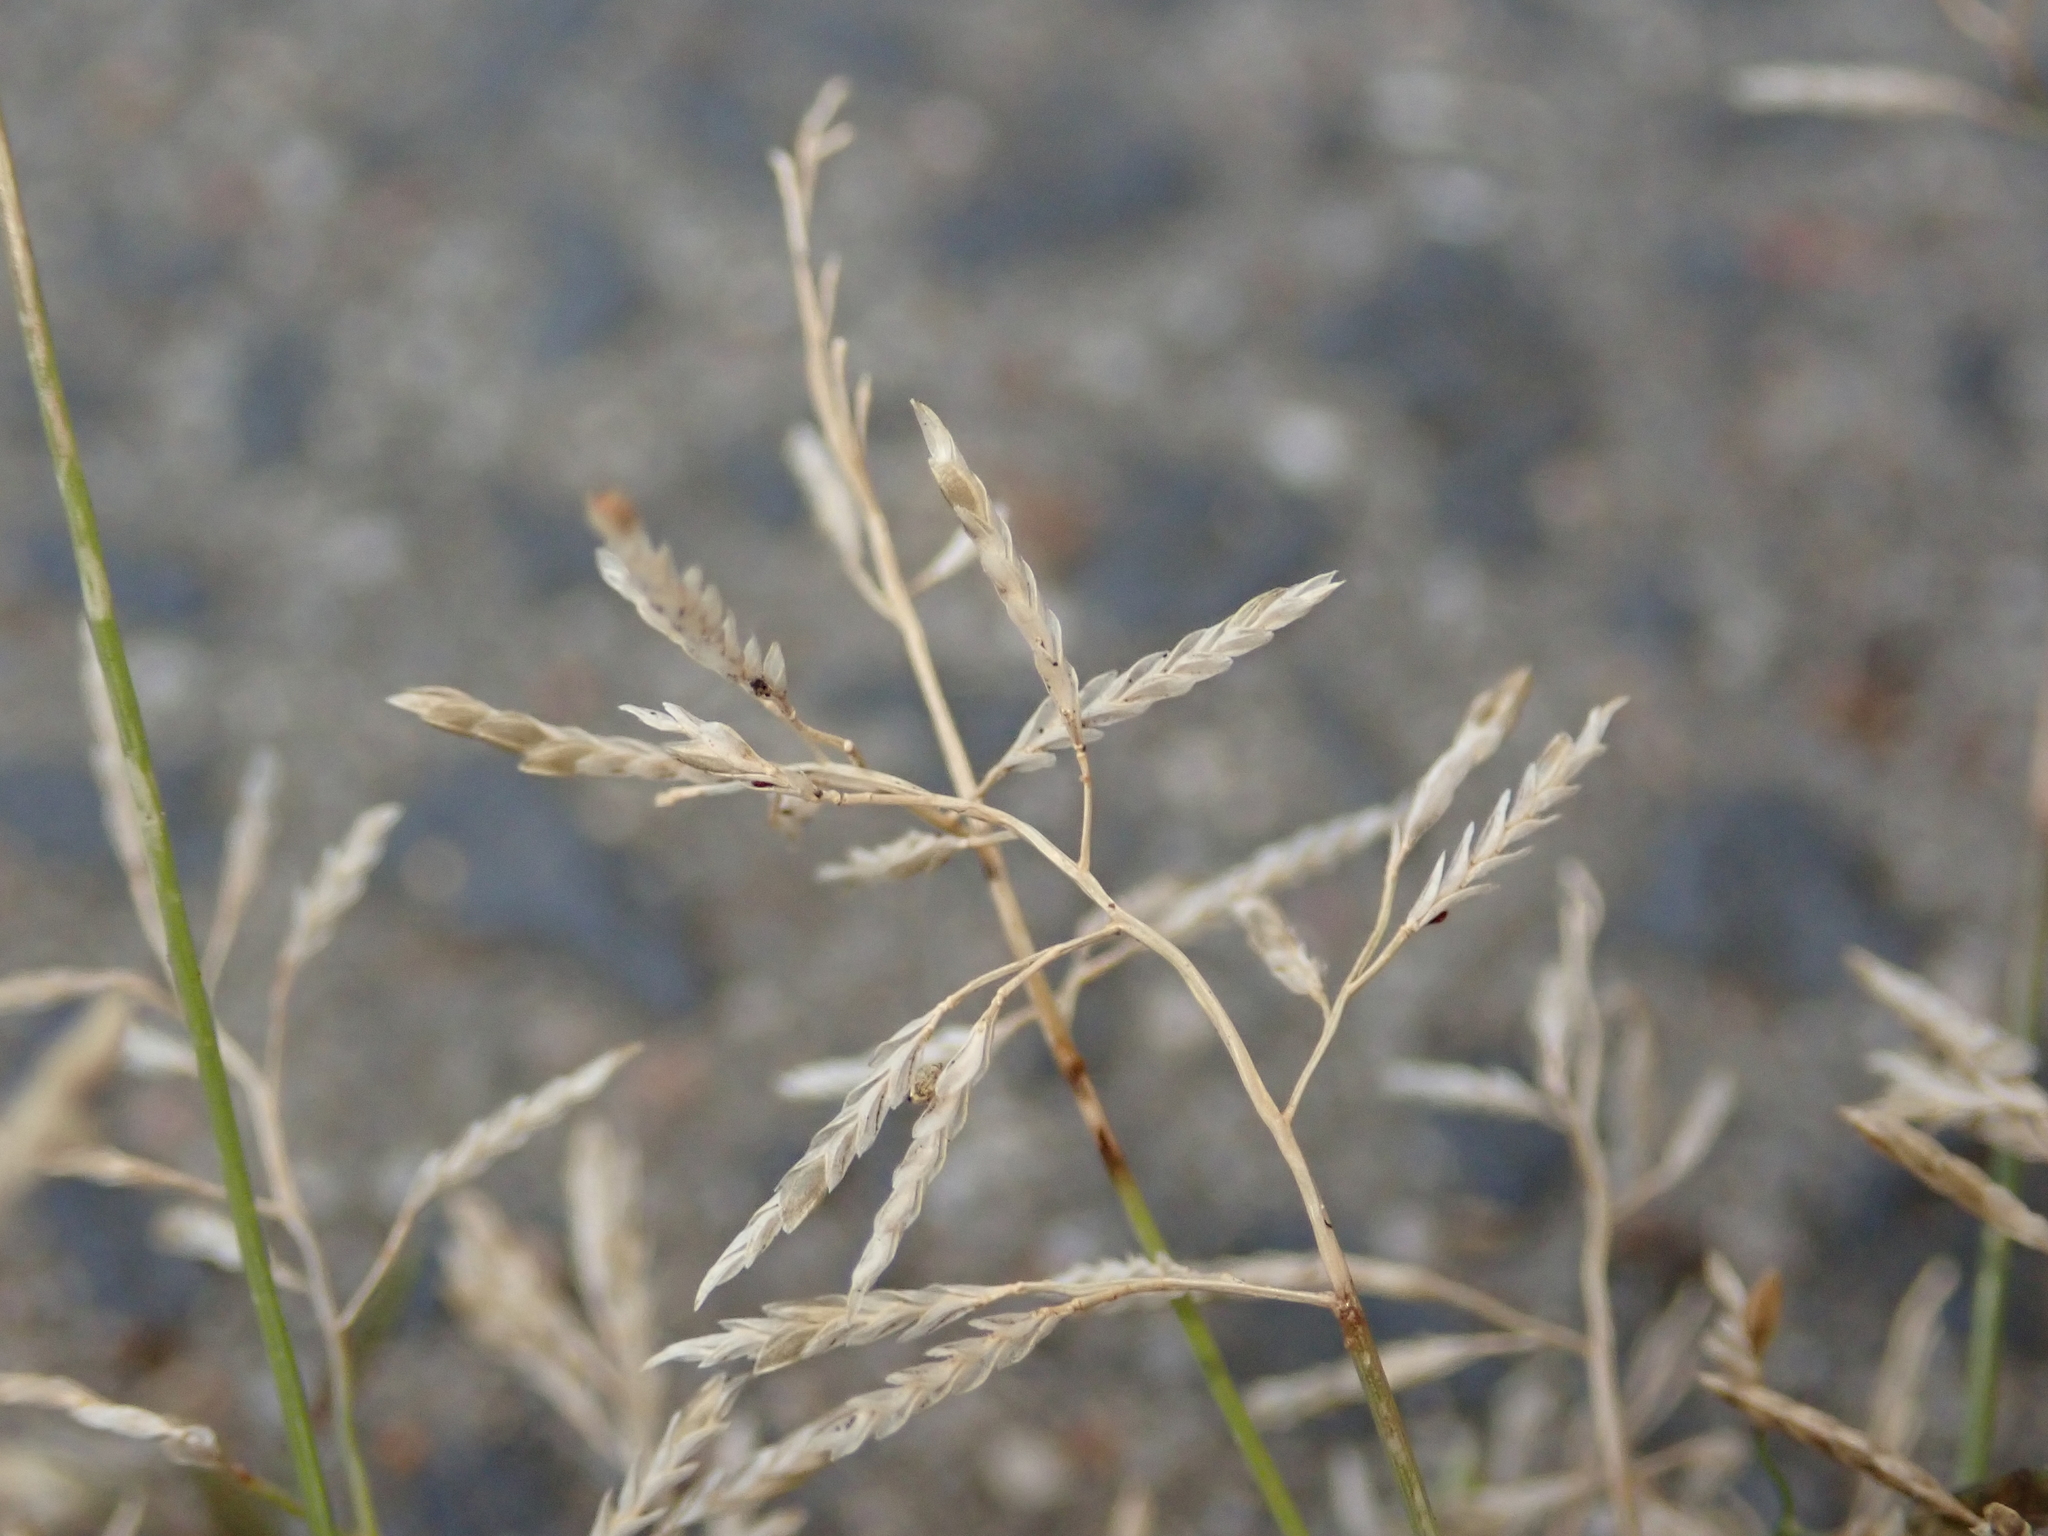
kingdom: Plantae
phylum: Tracheophyta
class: Liliopsida
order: Poales
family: Poaceae
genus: Eragrostis
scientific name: Eragrostis minor
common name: Small love-grass
